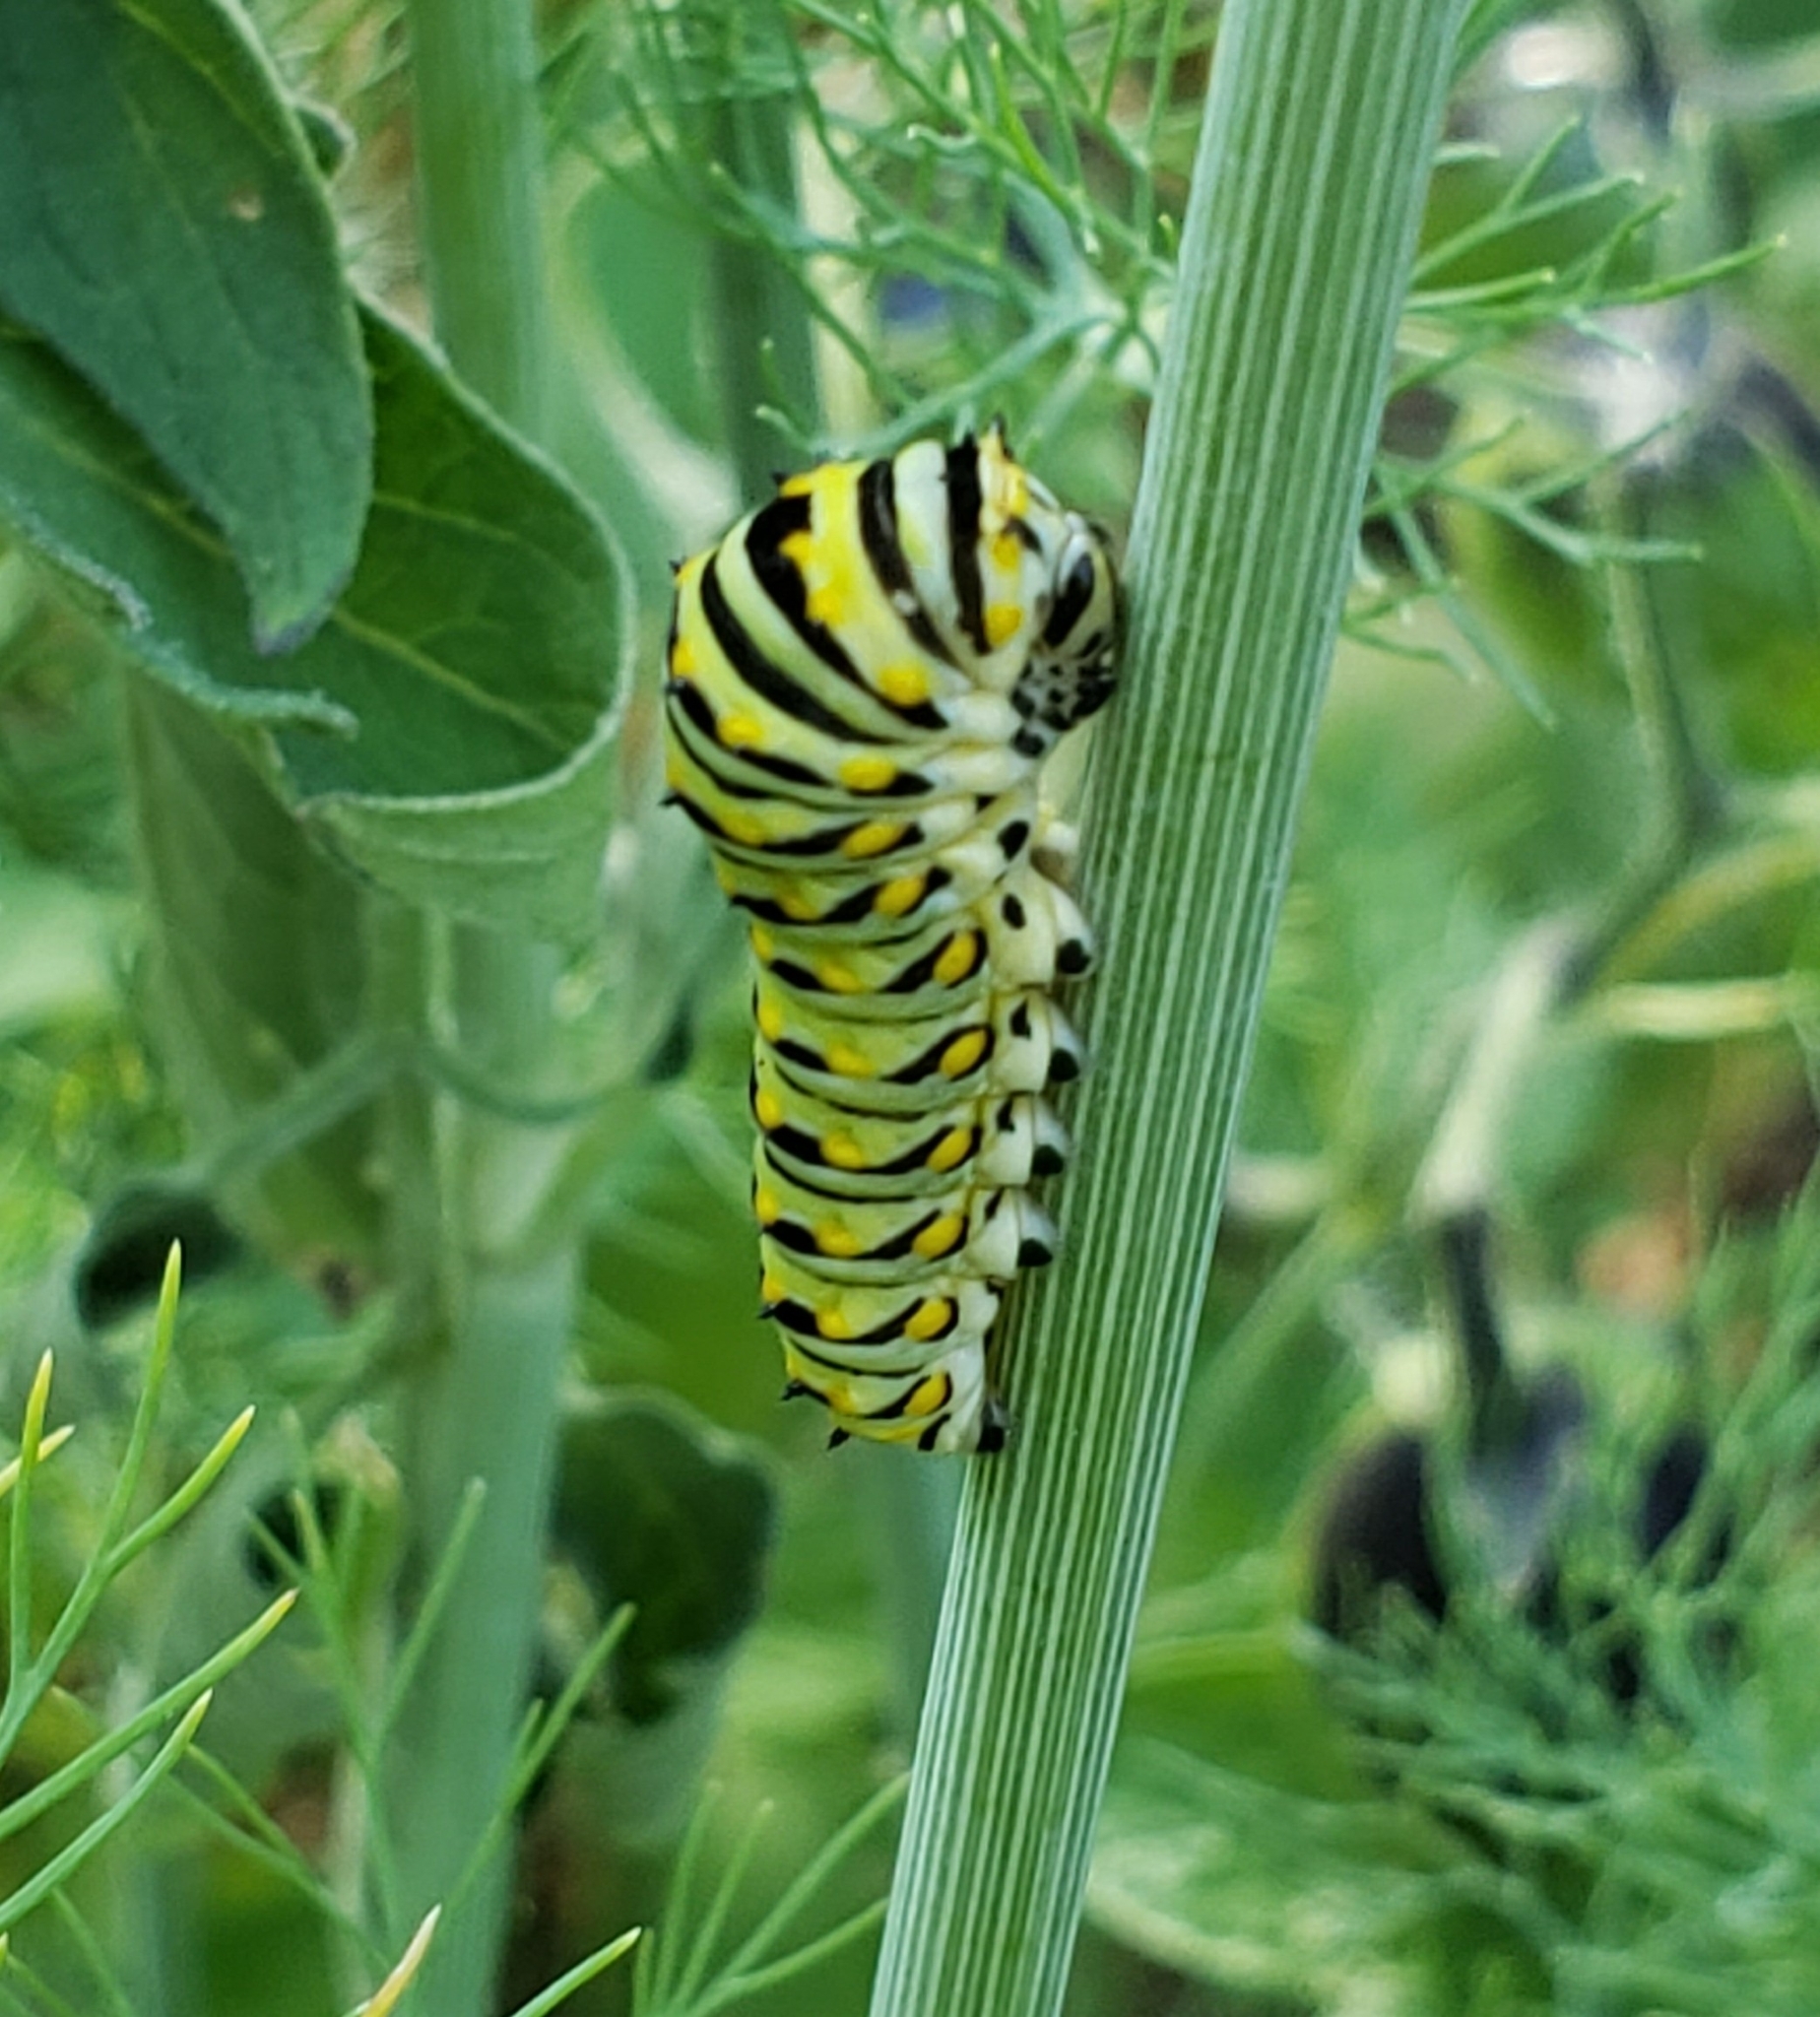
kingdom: Animalia
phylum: Arthropoda
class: Insecta
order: Lepidoptera
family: Papilionidae
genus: Papilio
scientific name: Papilio polyxenes
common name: Black swallowtail
